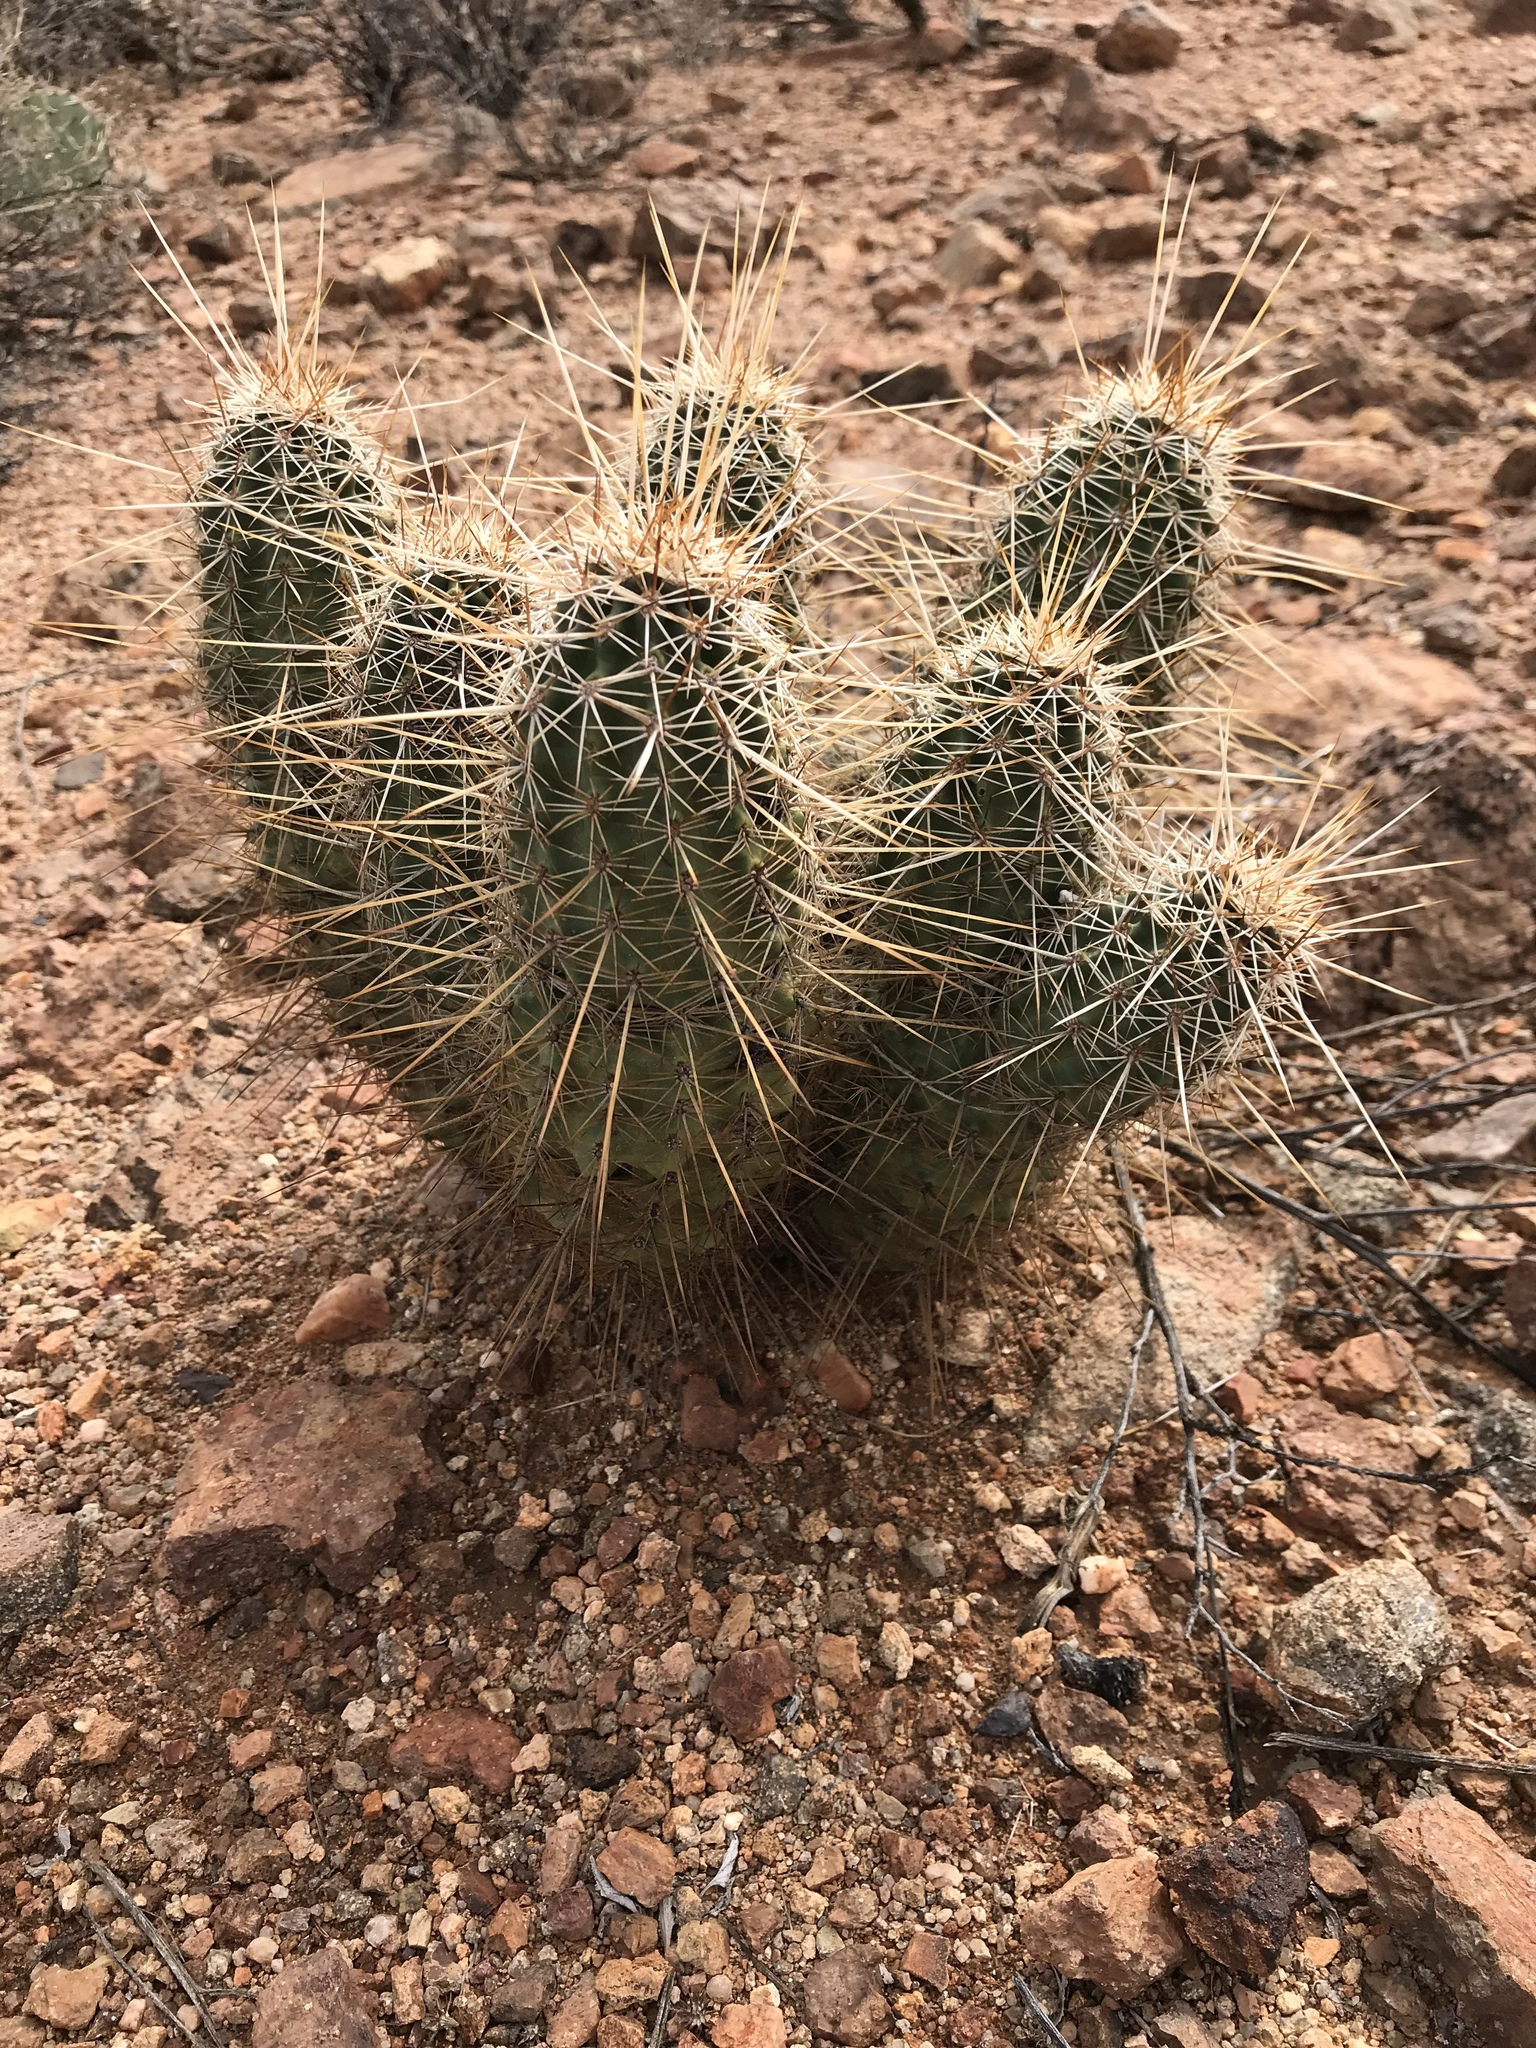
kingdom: Plantae
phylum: Tracheophyta
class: Magnoliopsida
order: Caryophyllales
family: Cactaceae
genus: Echinocereus
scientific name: Echinocereus engelmannii
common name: Engelmann's hedgehog cactus
